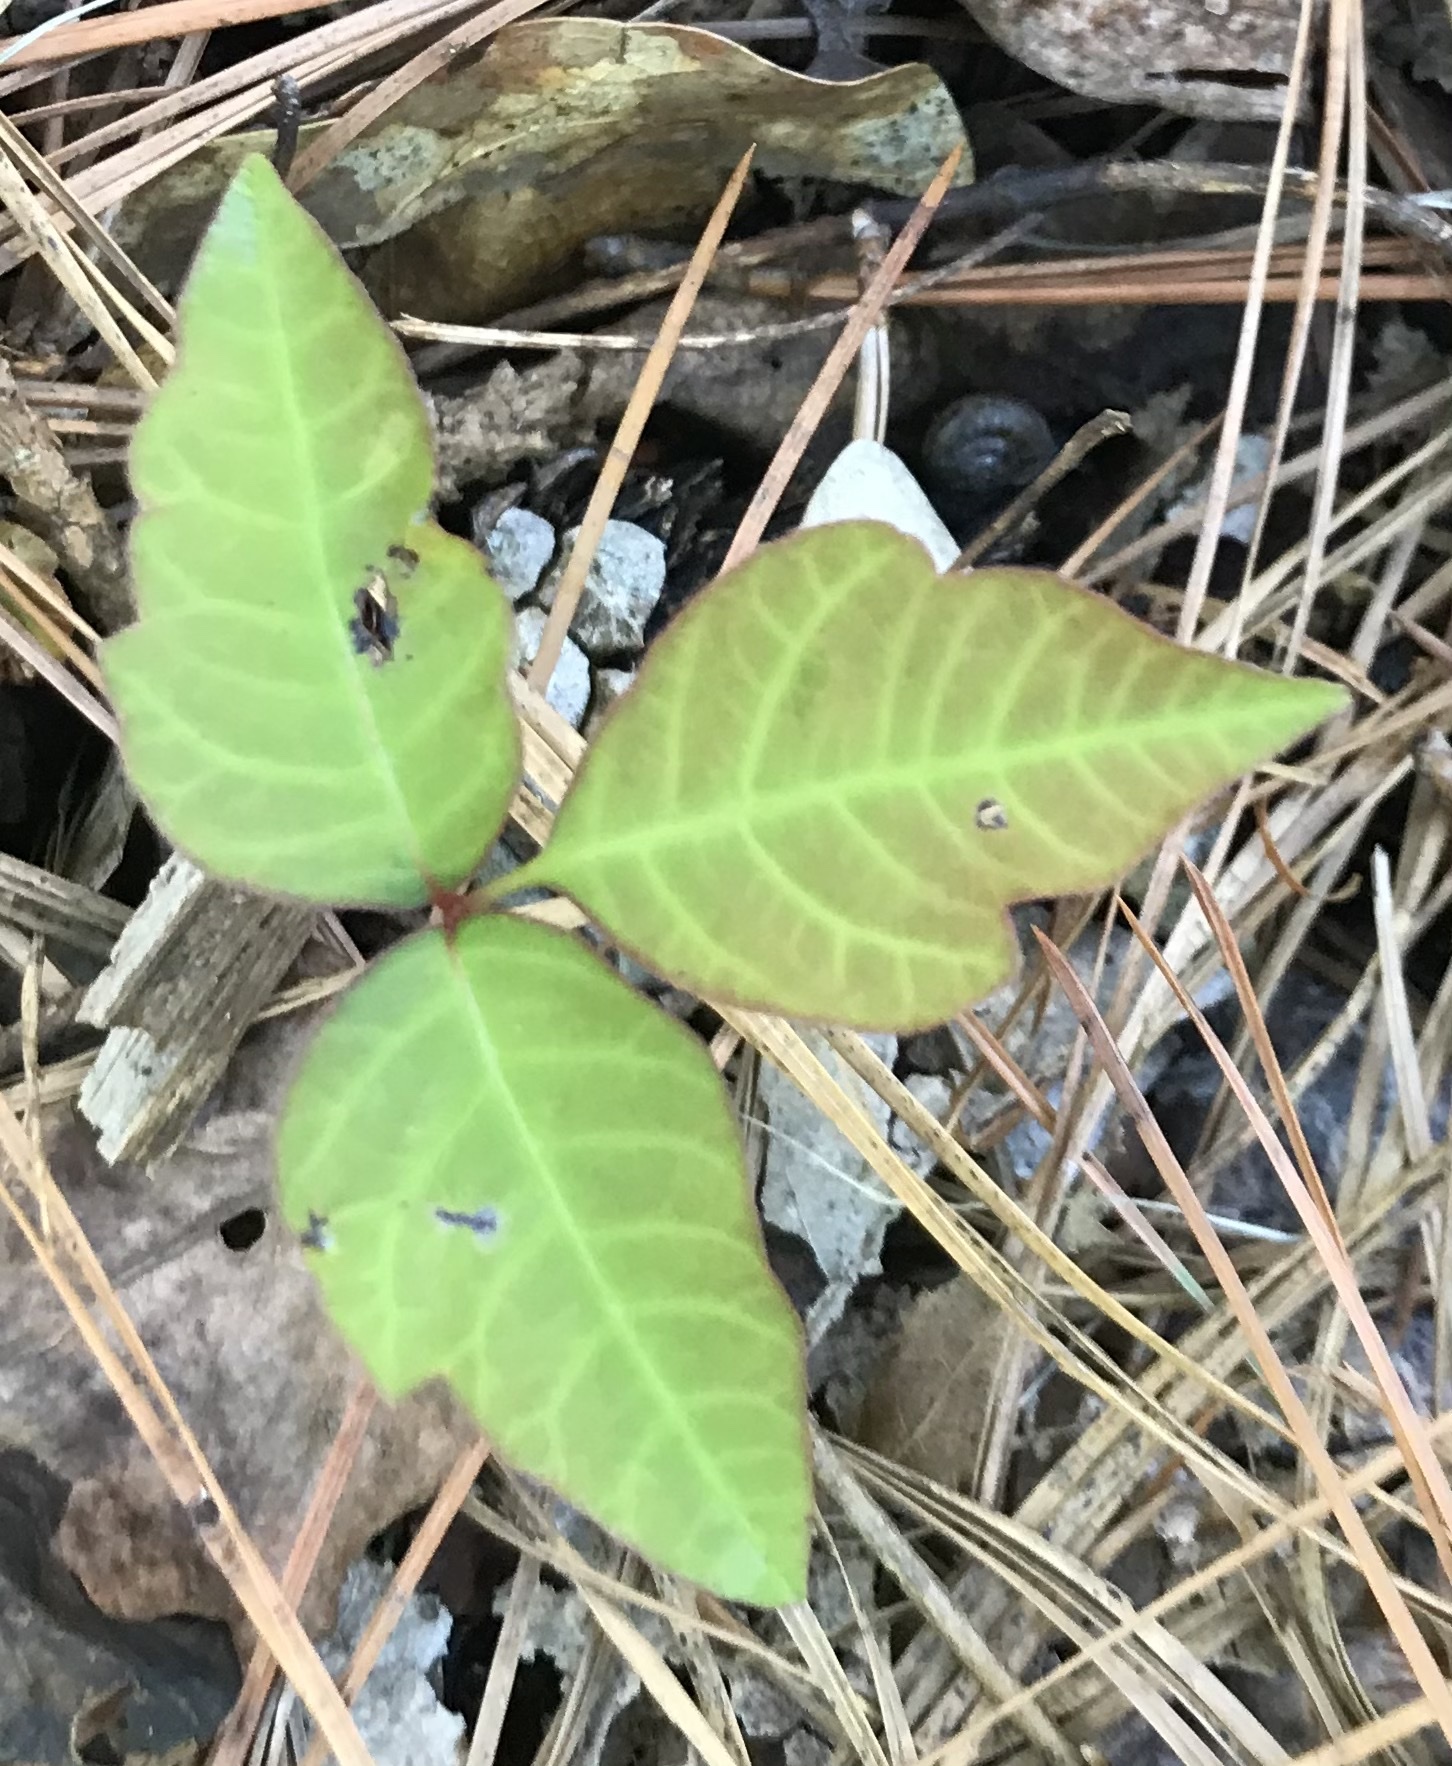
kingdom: Plantae
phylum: Tracheophyta
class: Magnoliopsida
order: Sapindales
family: Anacardiaceae
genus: Toxicodendron
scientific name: Toxicodendron radicans
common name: Poison ivy
